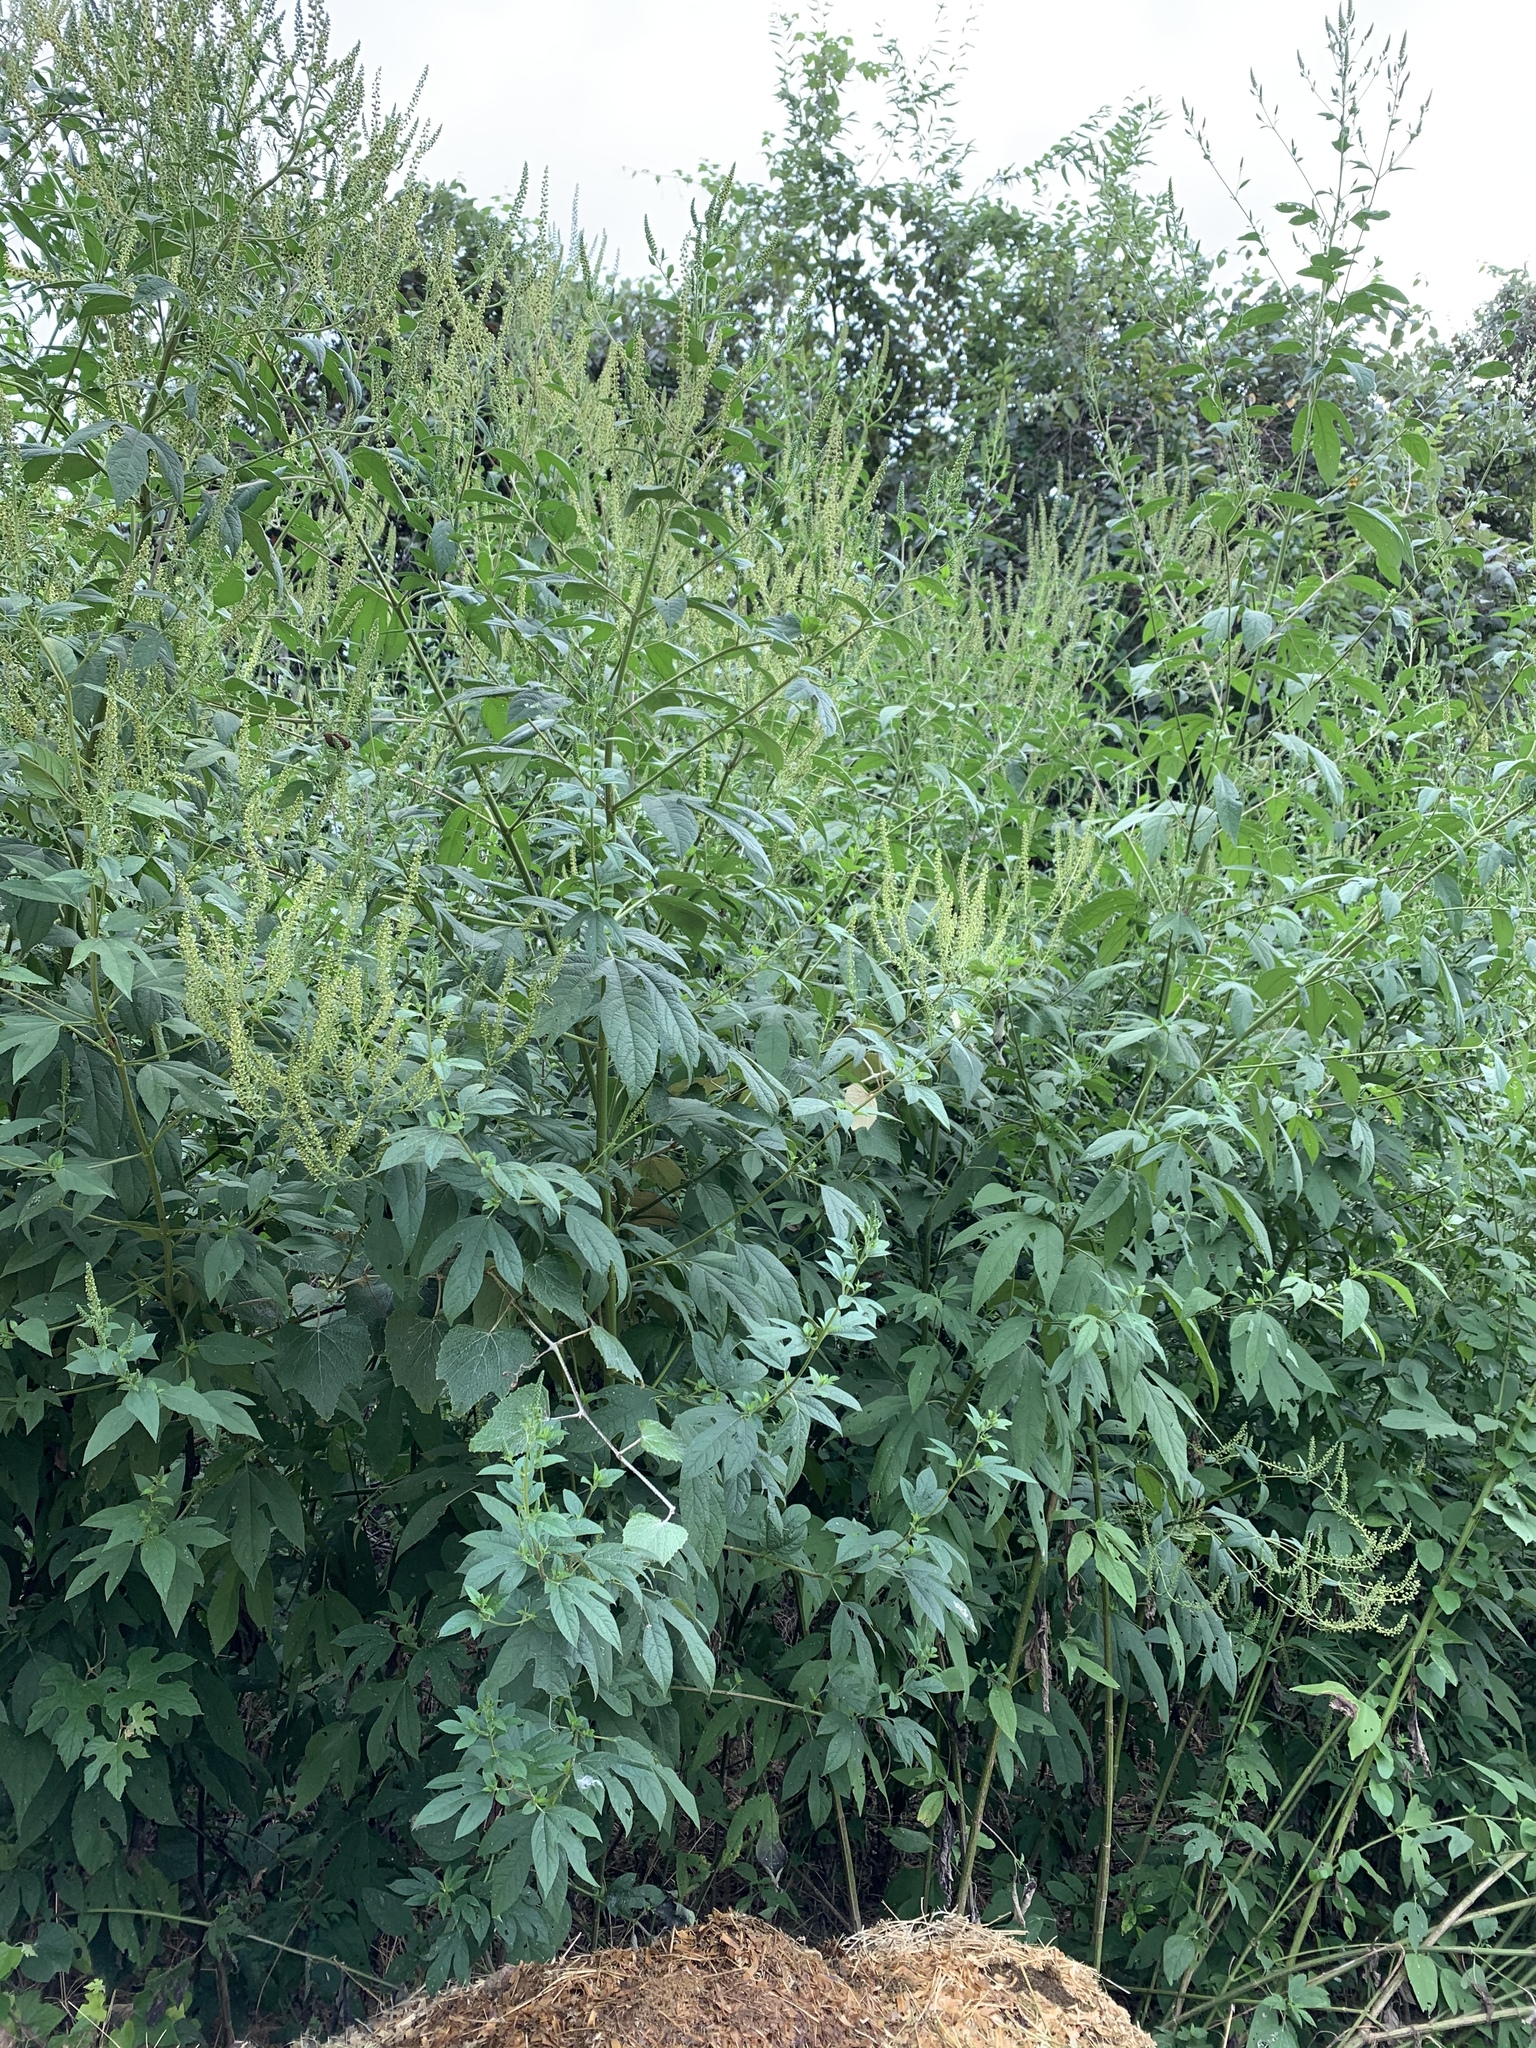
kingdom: Plantae
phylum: Tracheophyta
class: Magnoliopsida
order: Asterales
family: Asteraceae
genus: Ambrosia
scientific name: Ambrosia trifida
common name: Giant ragweed
